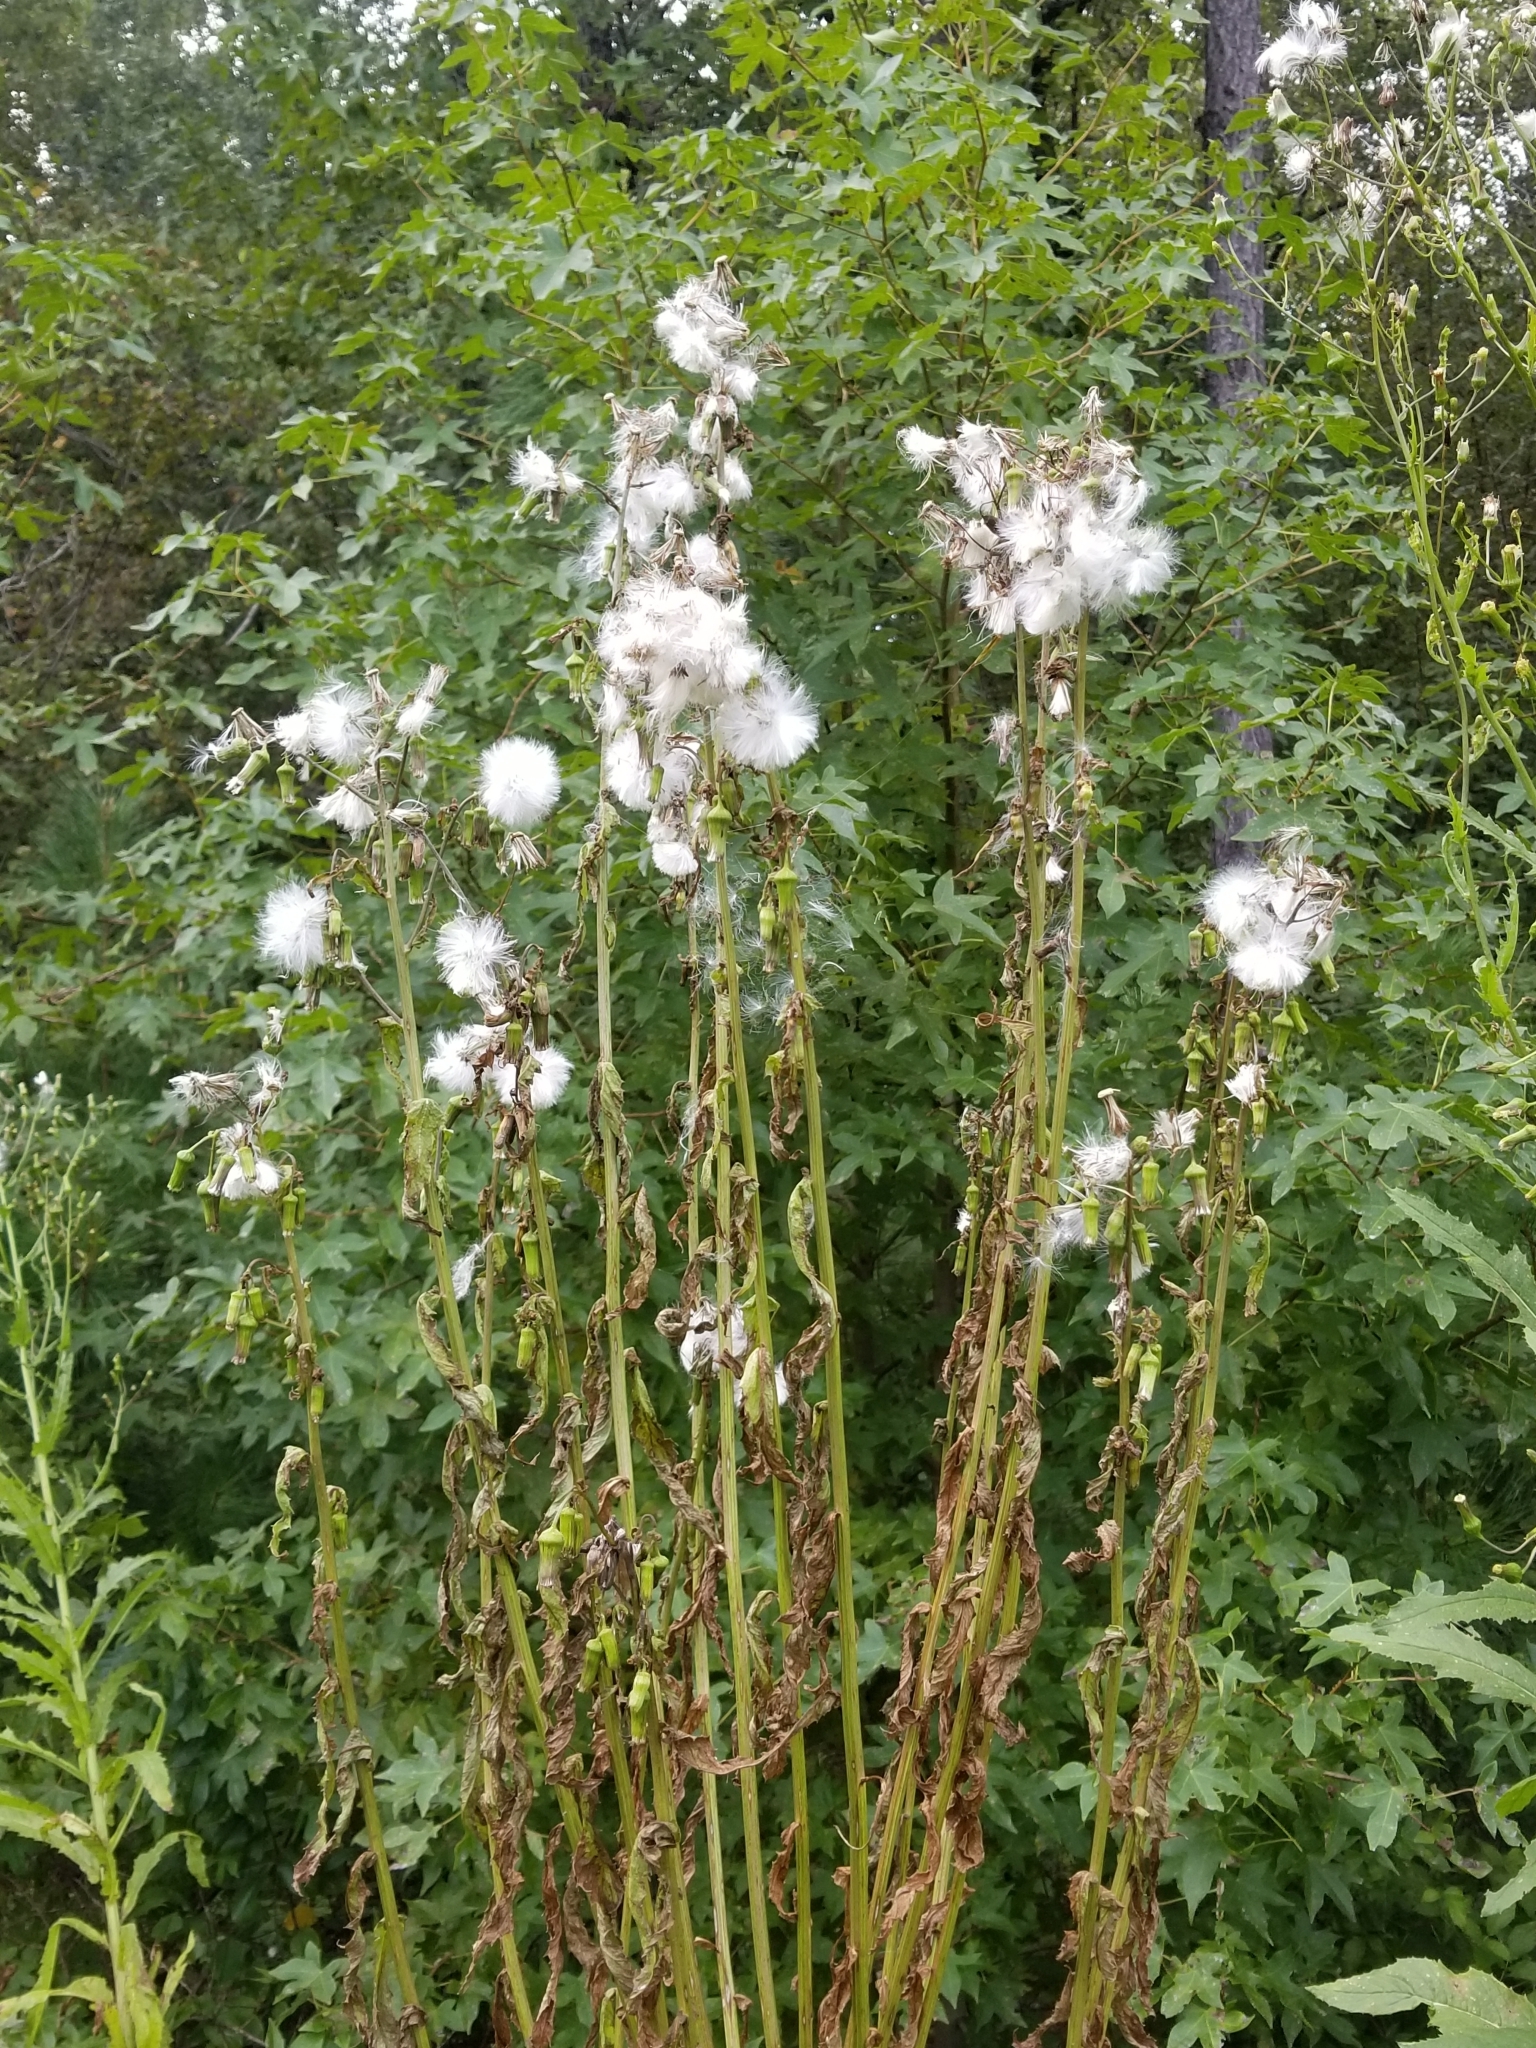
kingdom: Plantae
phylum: Tracheophyta
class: Magnoliopsida
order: Asterales
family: Asteraceae
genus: Erechtites
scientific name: Erechtites hieraciifolius
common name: American burnweed
